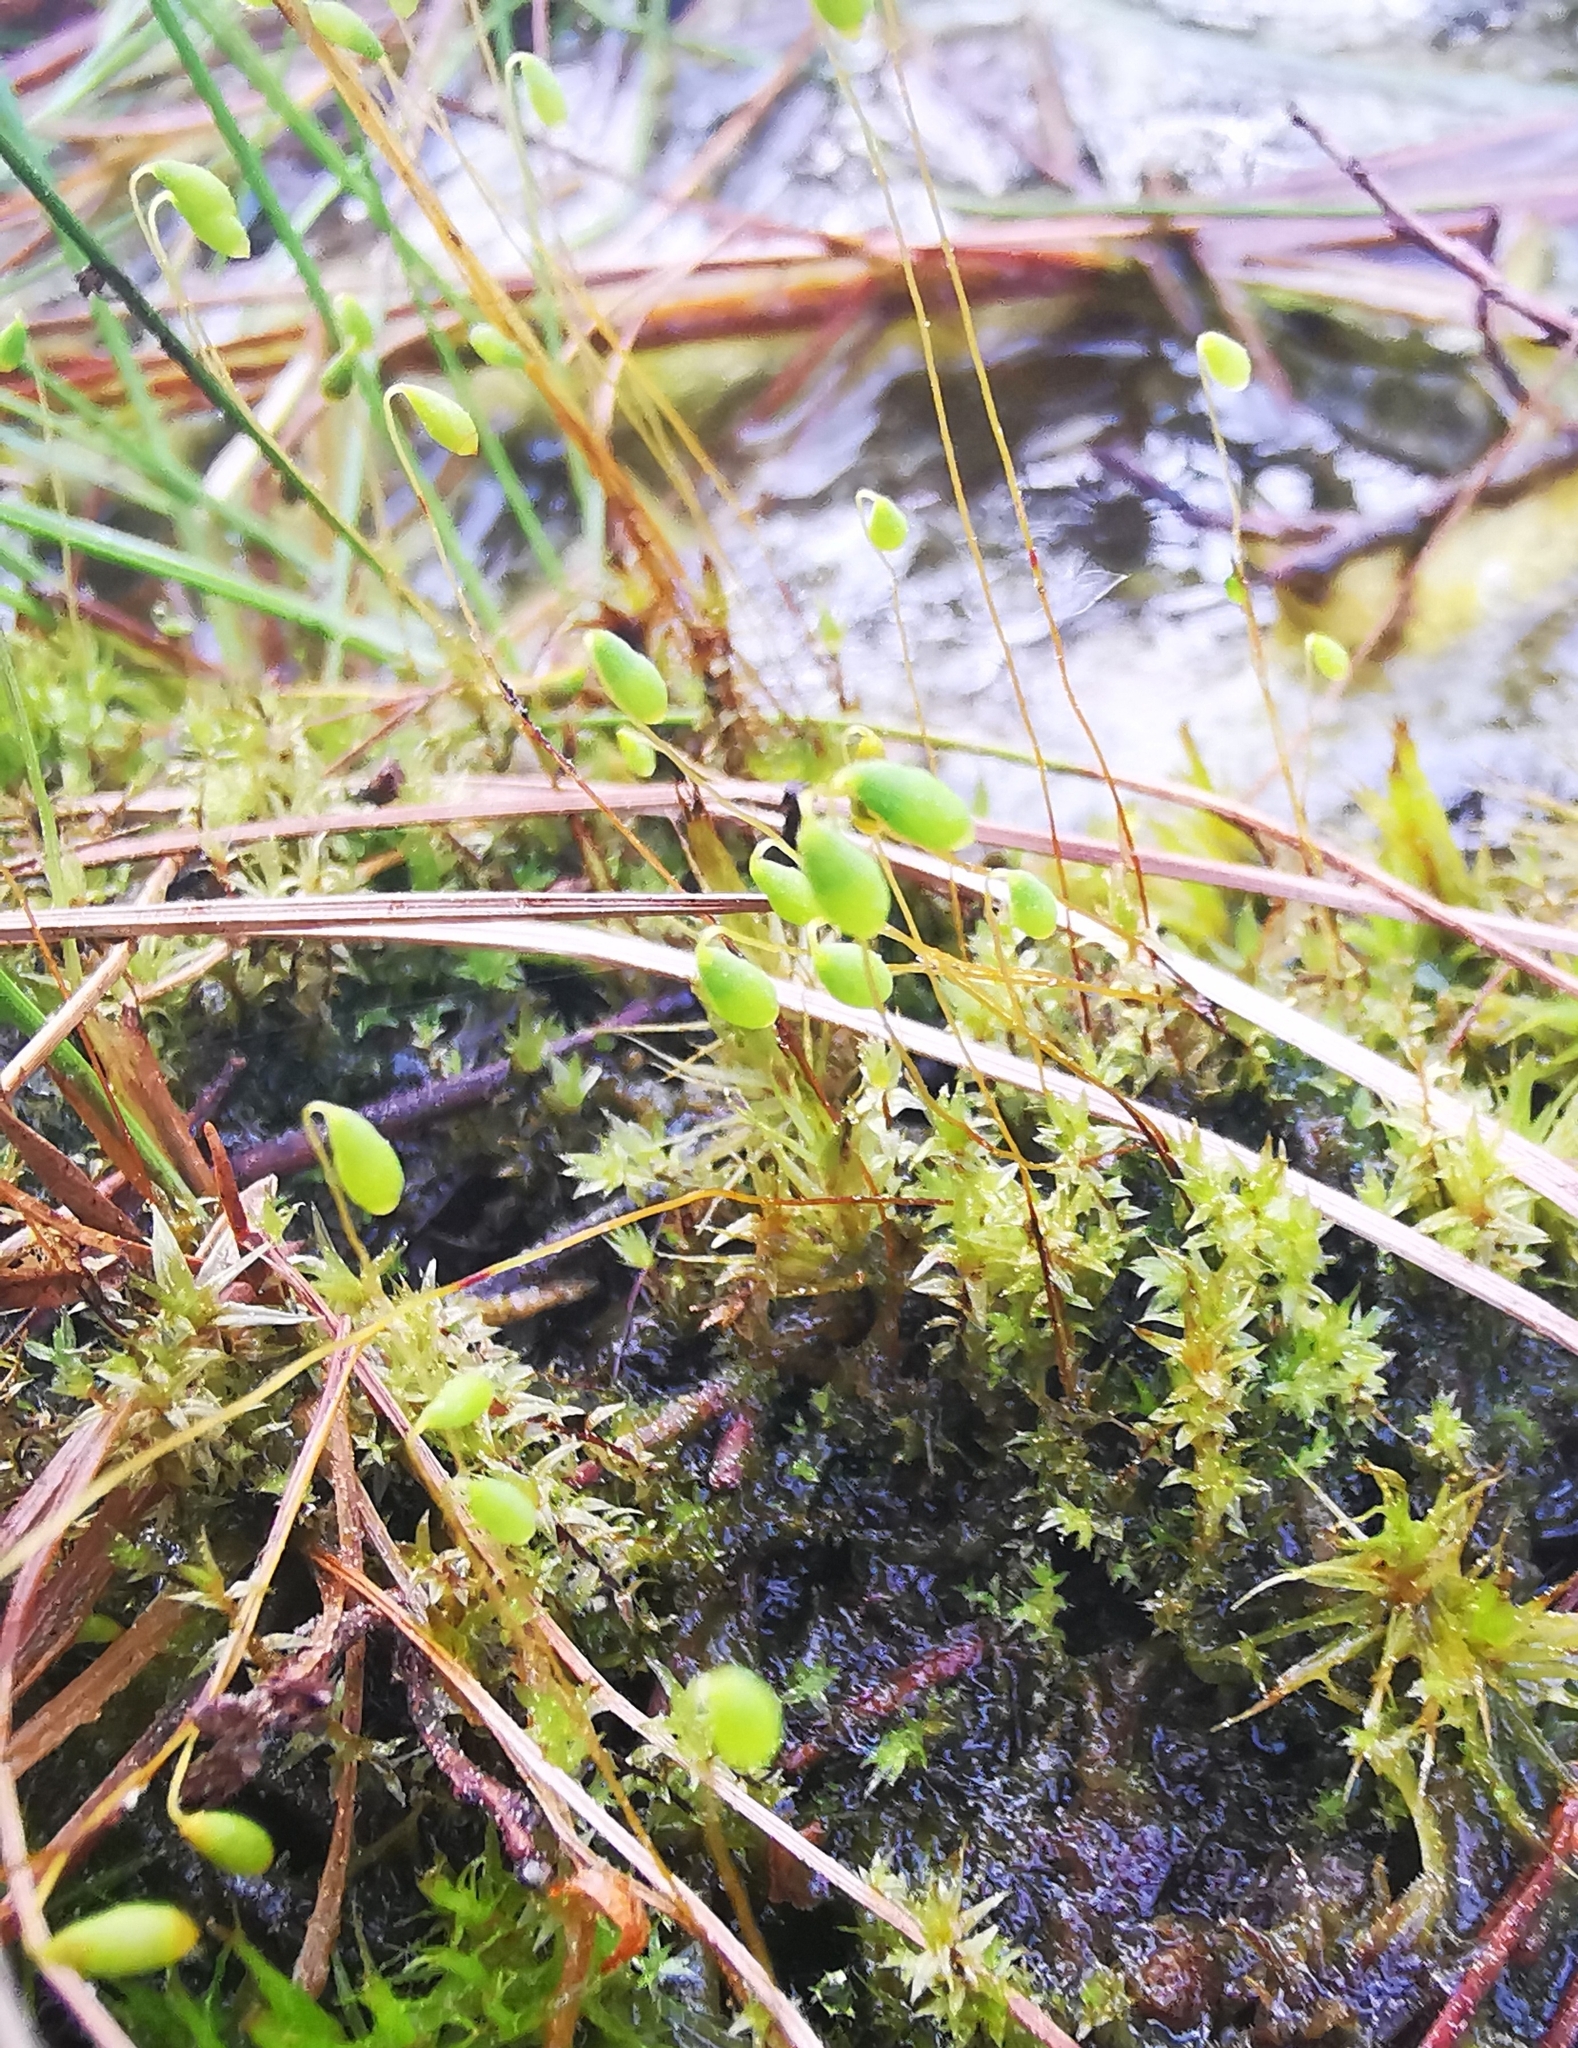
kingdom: Plantae
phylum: Bryophyta
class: Bryopsida
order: Bryales
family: Mniaceae
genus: Pohlia
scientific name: Pohlia nutans
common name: Nodding thread-moss
